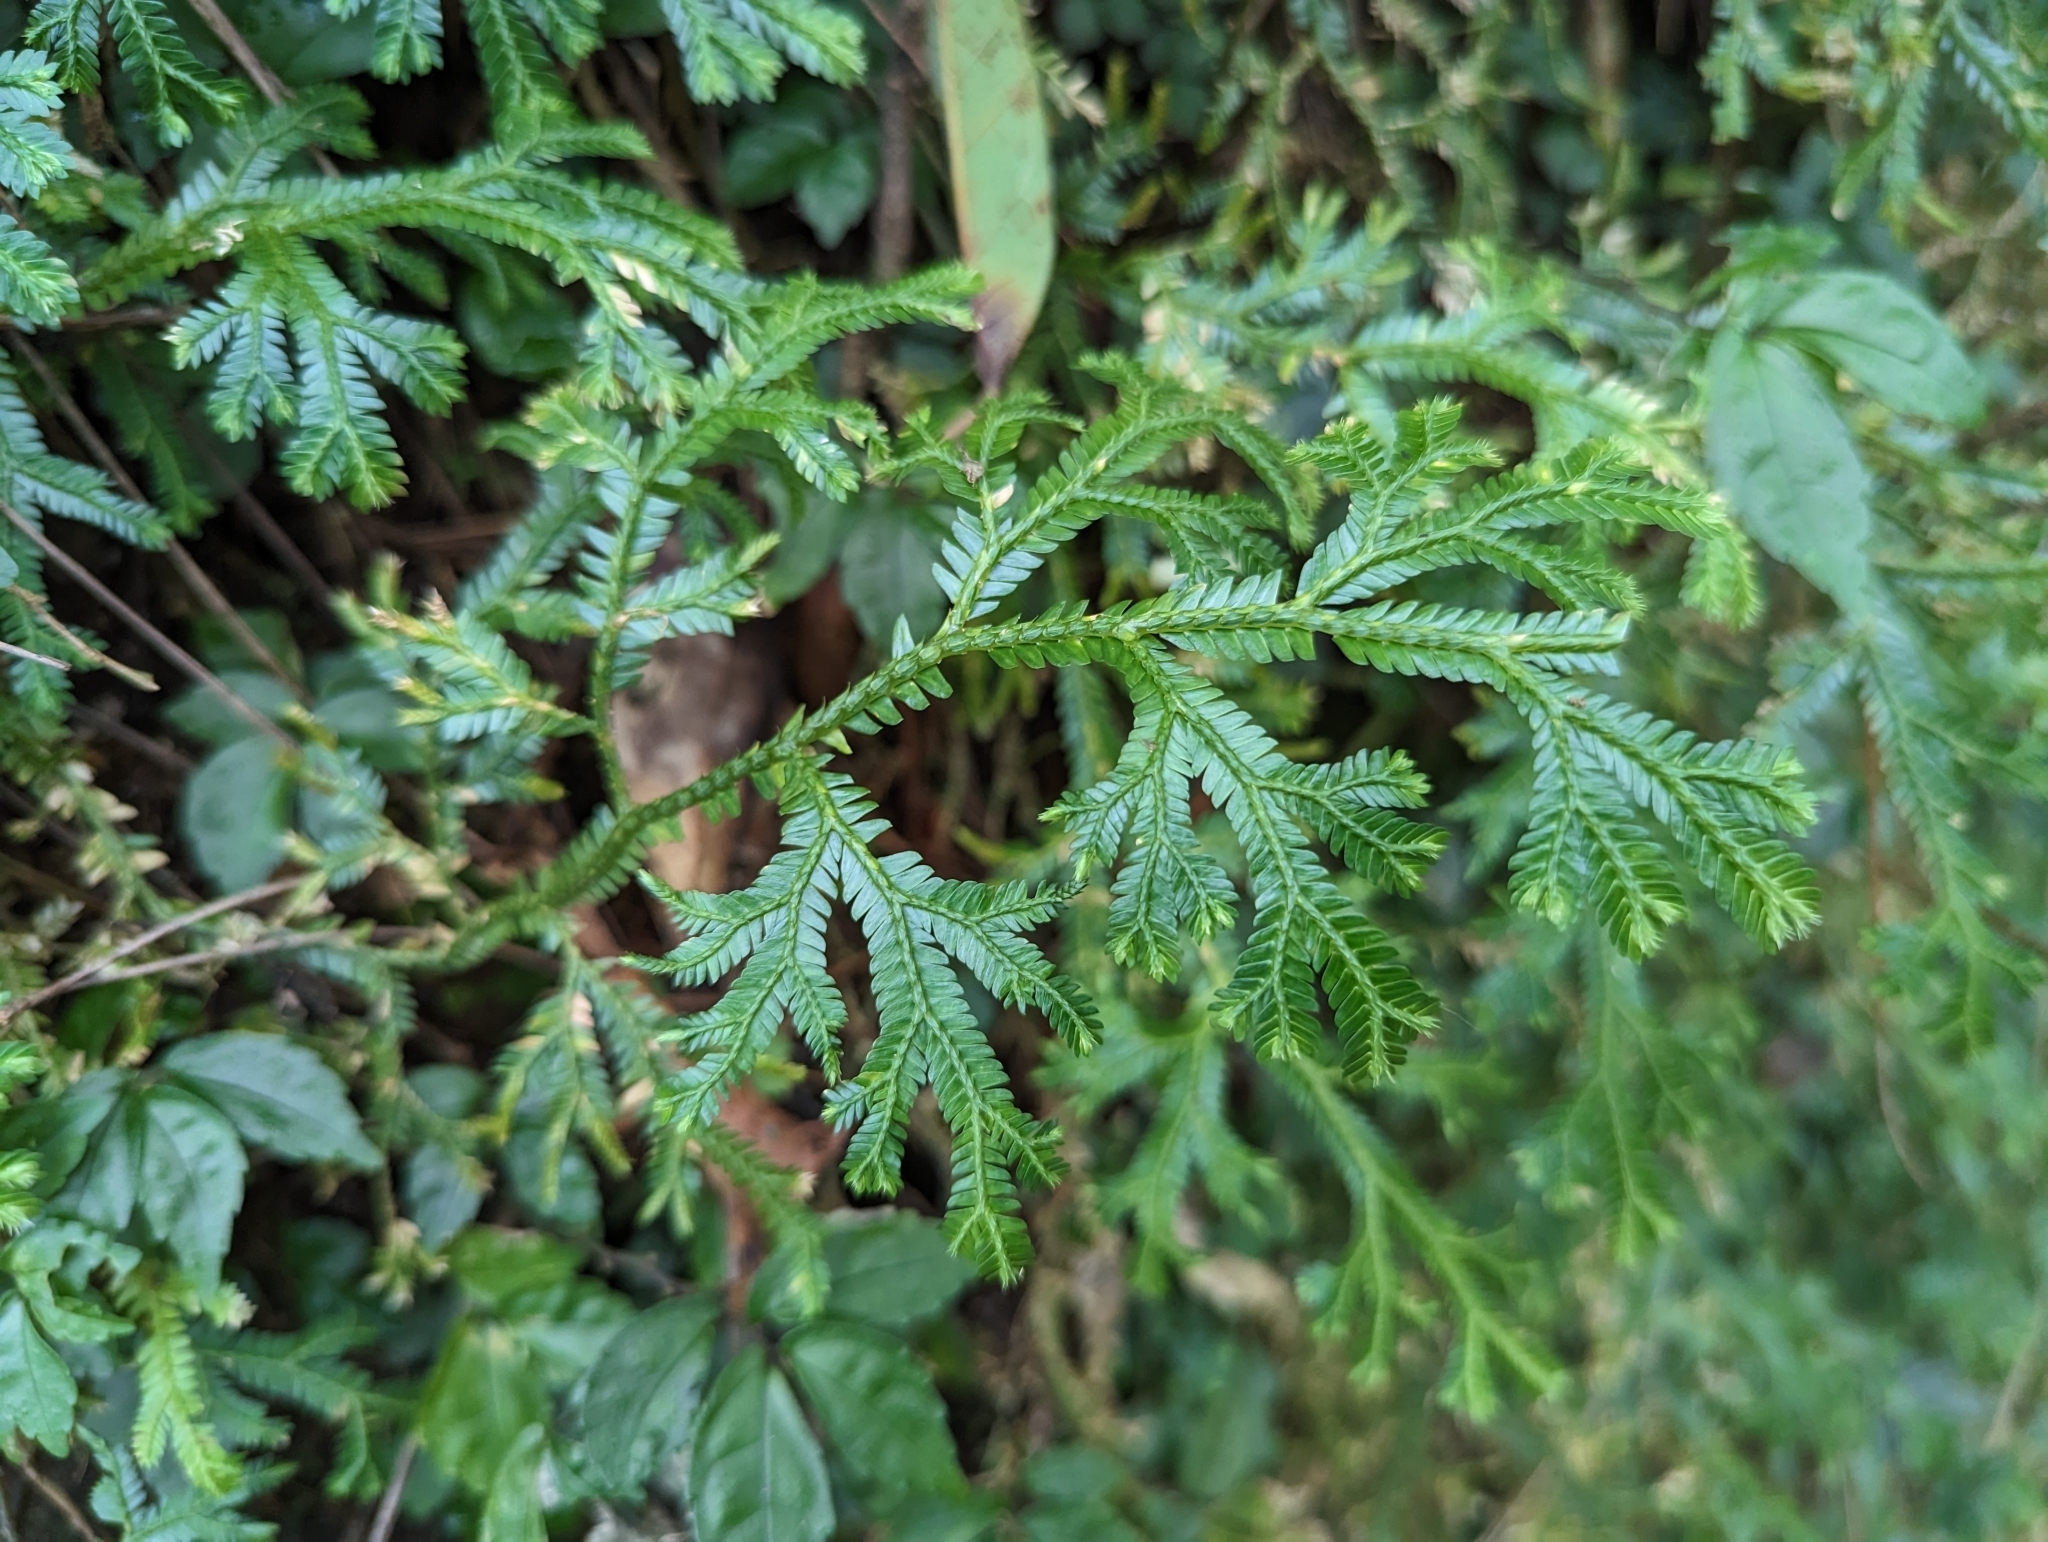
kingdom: Plantae
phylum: Tracheophyta
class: Lycopodiopsida
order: Selaginellales
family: Selaginellaceae
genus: Selaginella
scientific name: Selaginella doederleinii
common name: Greater selaginella
